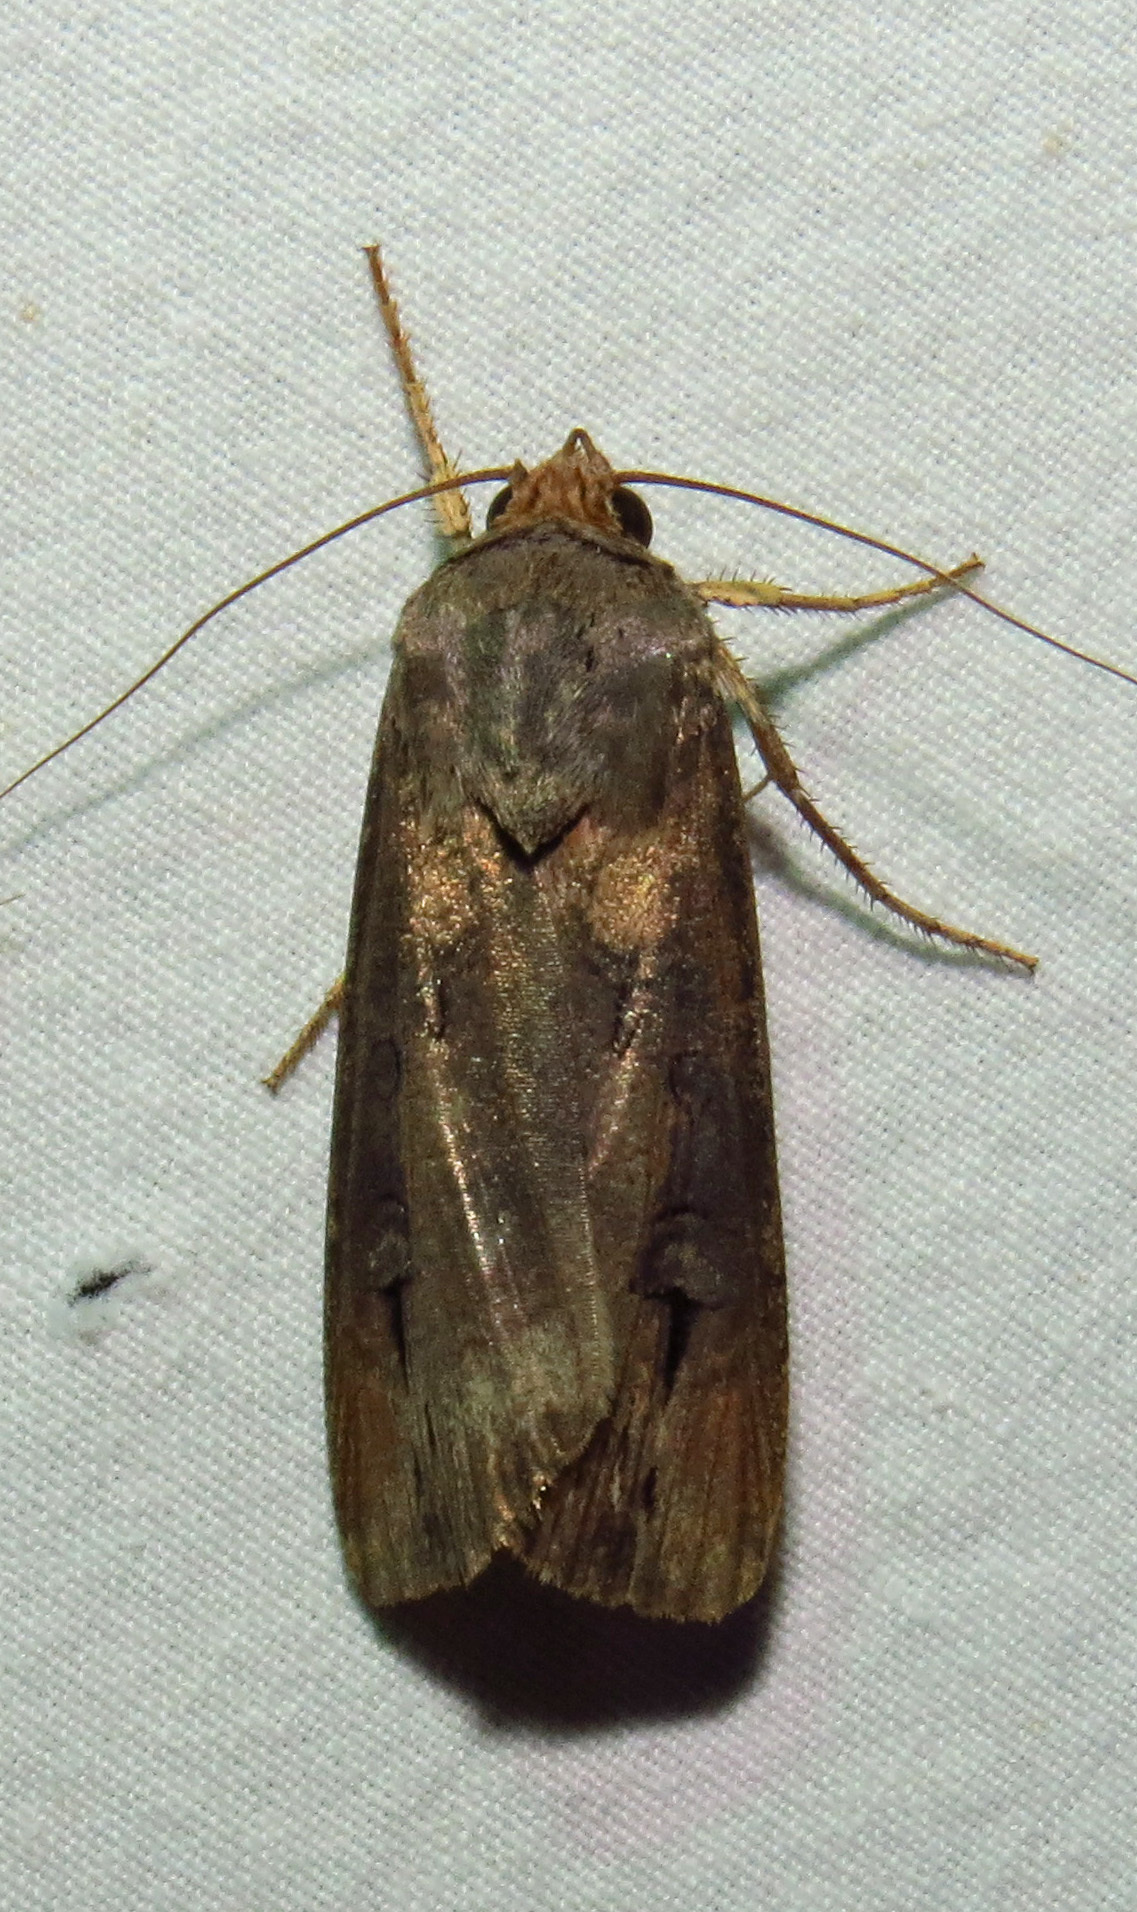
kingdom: Animalia
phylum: Arthropoda
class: Insecta
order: Lepidoptera
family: Noctuidae
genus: Agrotis
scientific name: Agrotis ipsilon
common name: Dark sword-grass
